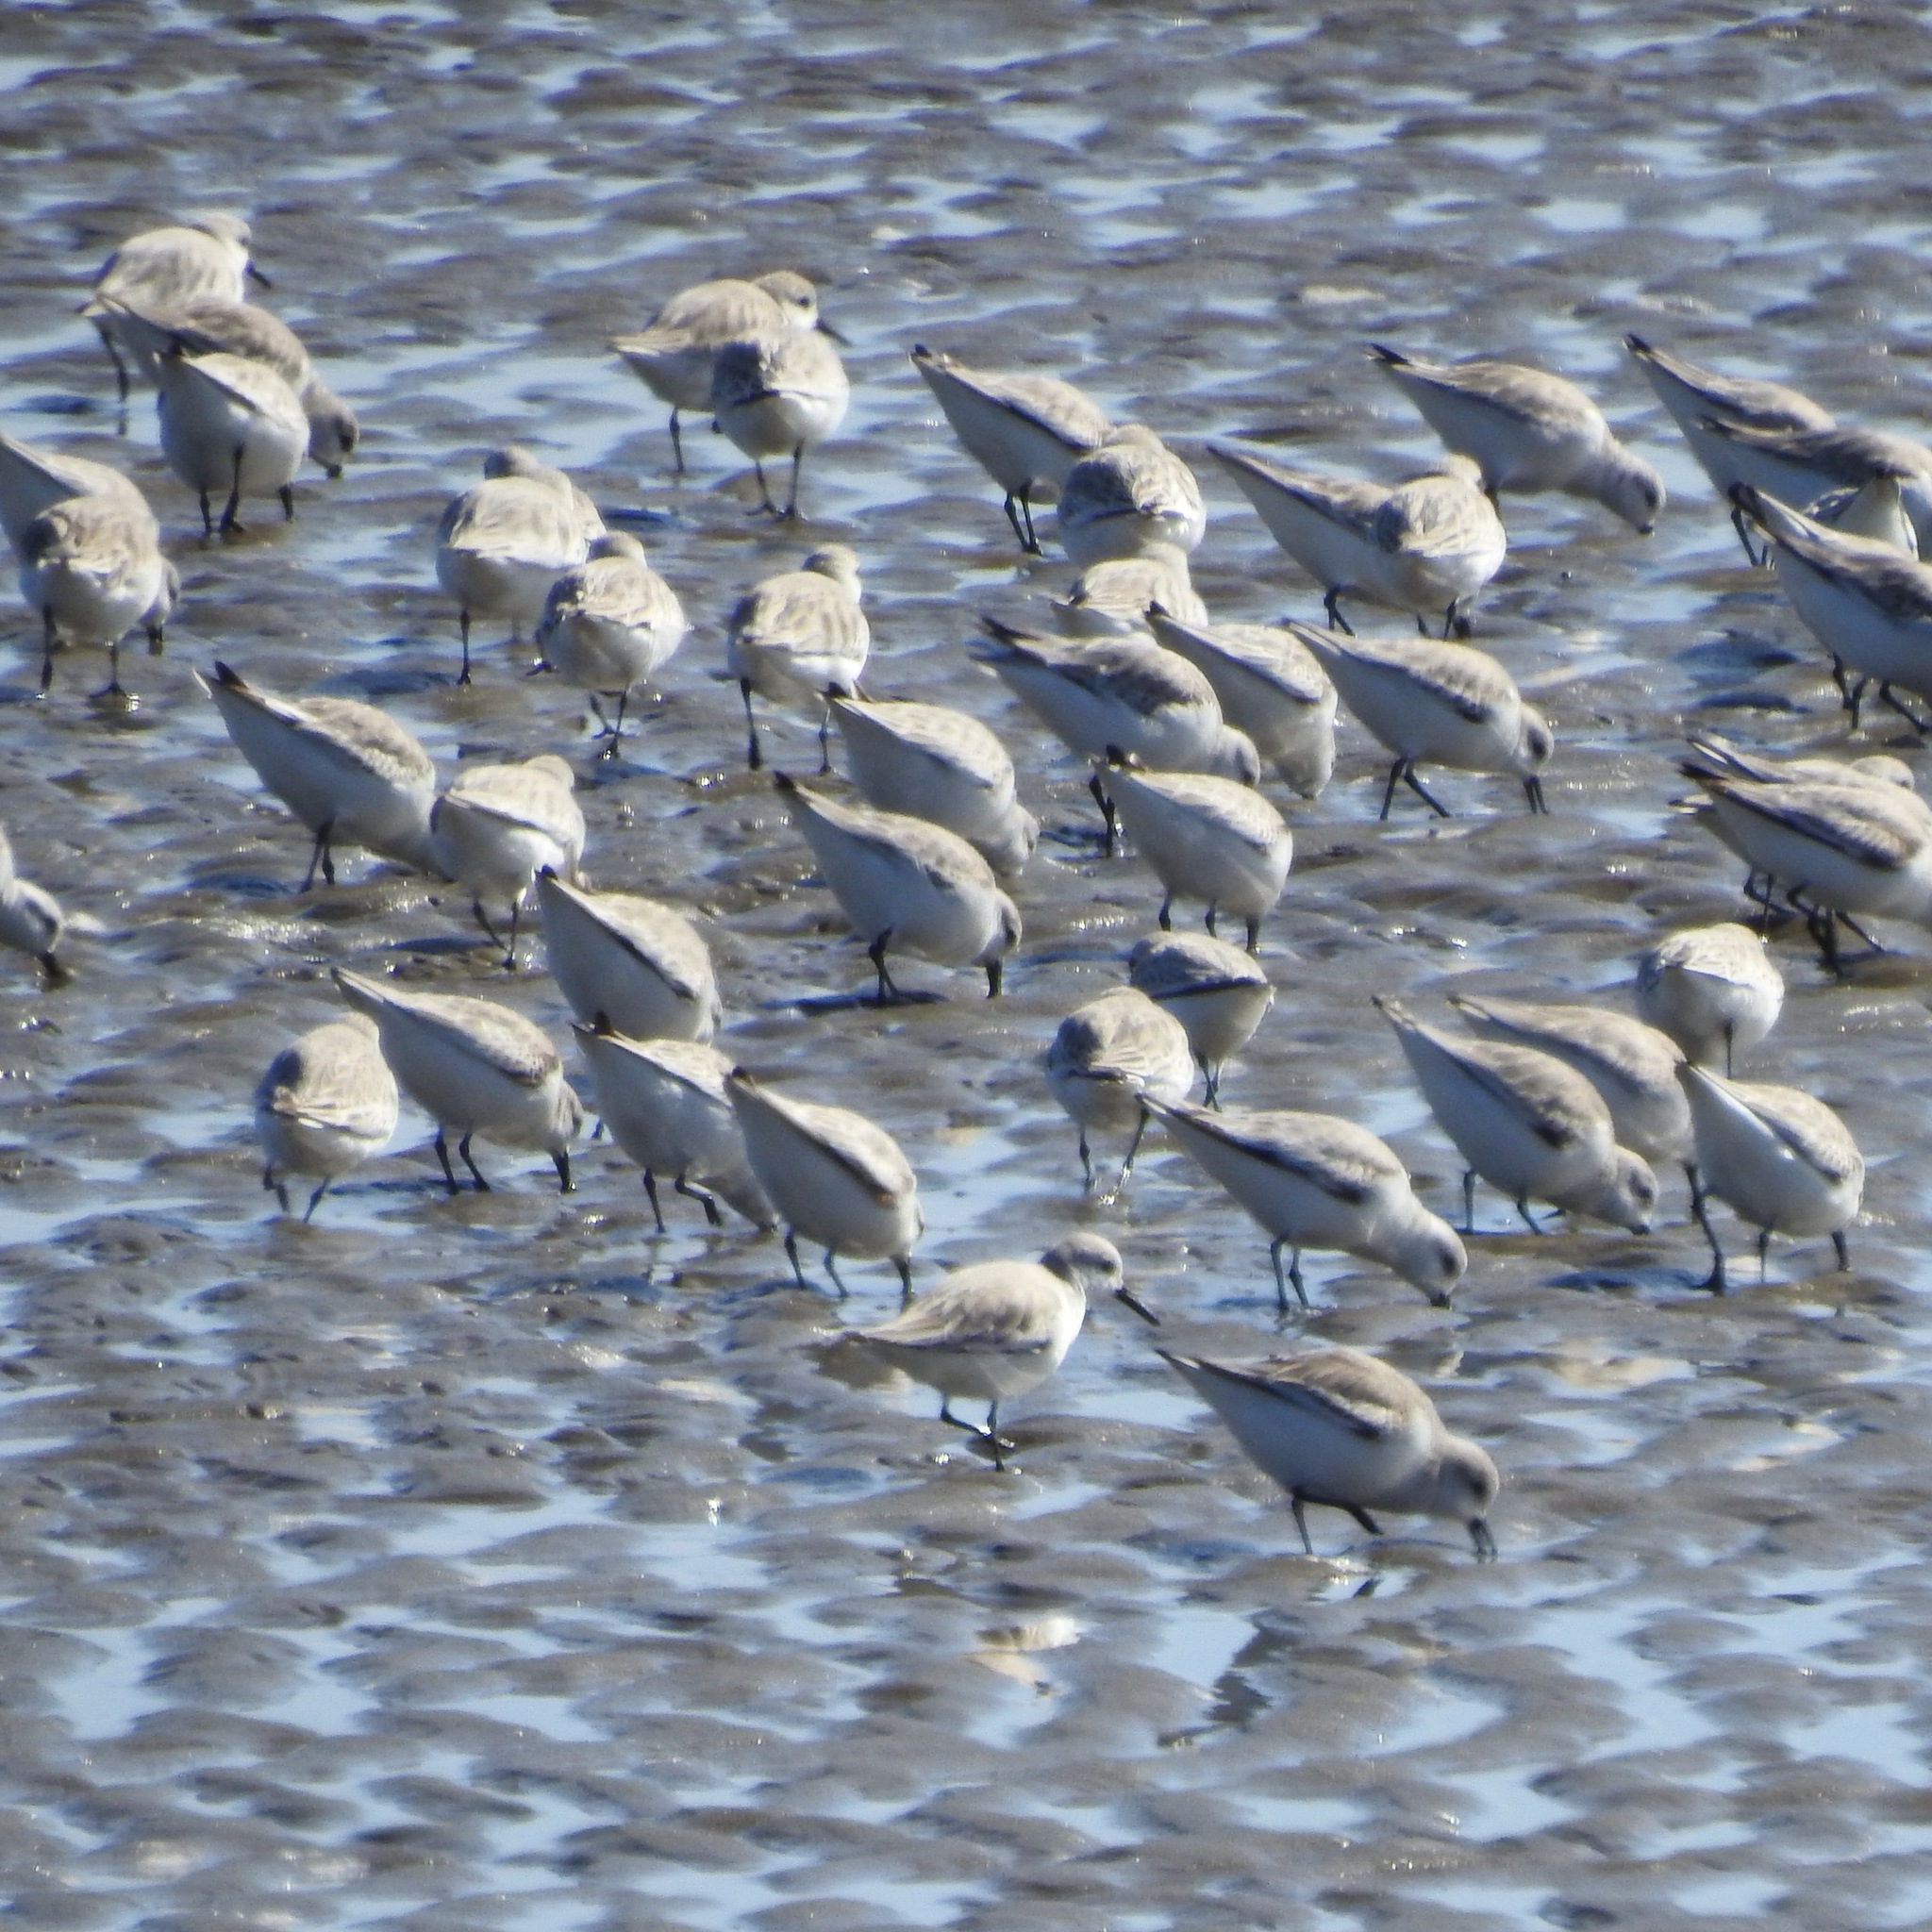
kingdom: Animalia
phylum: Chordata
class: Aves
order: Charadriiformes
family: Scolopacidae
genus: Calidris
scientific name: Calidris alba
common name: Sanderling
